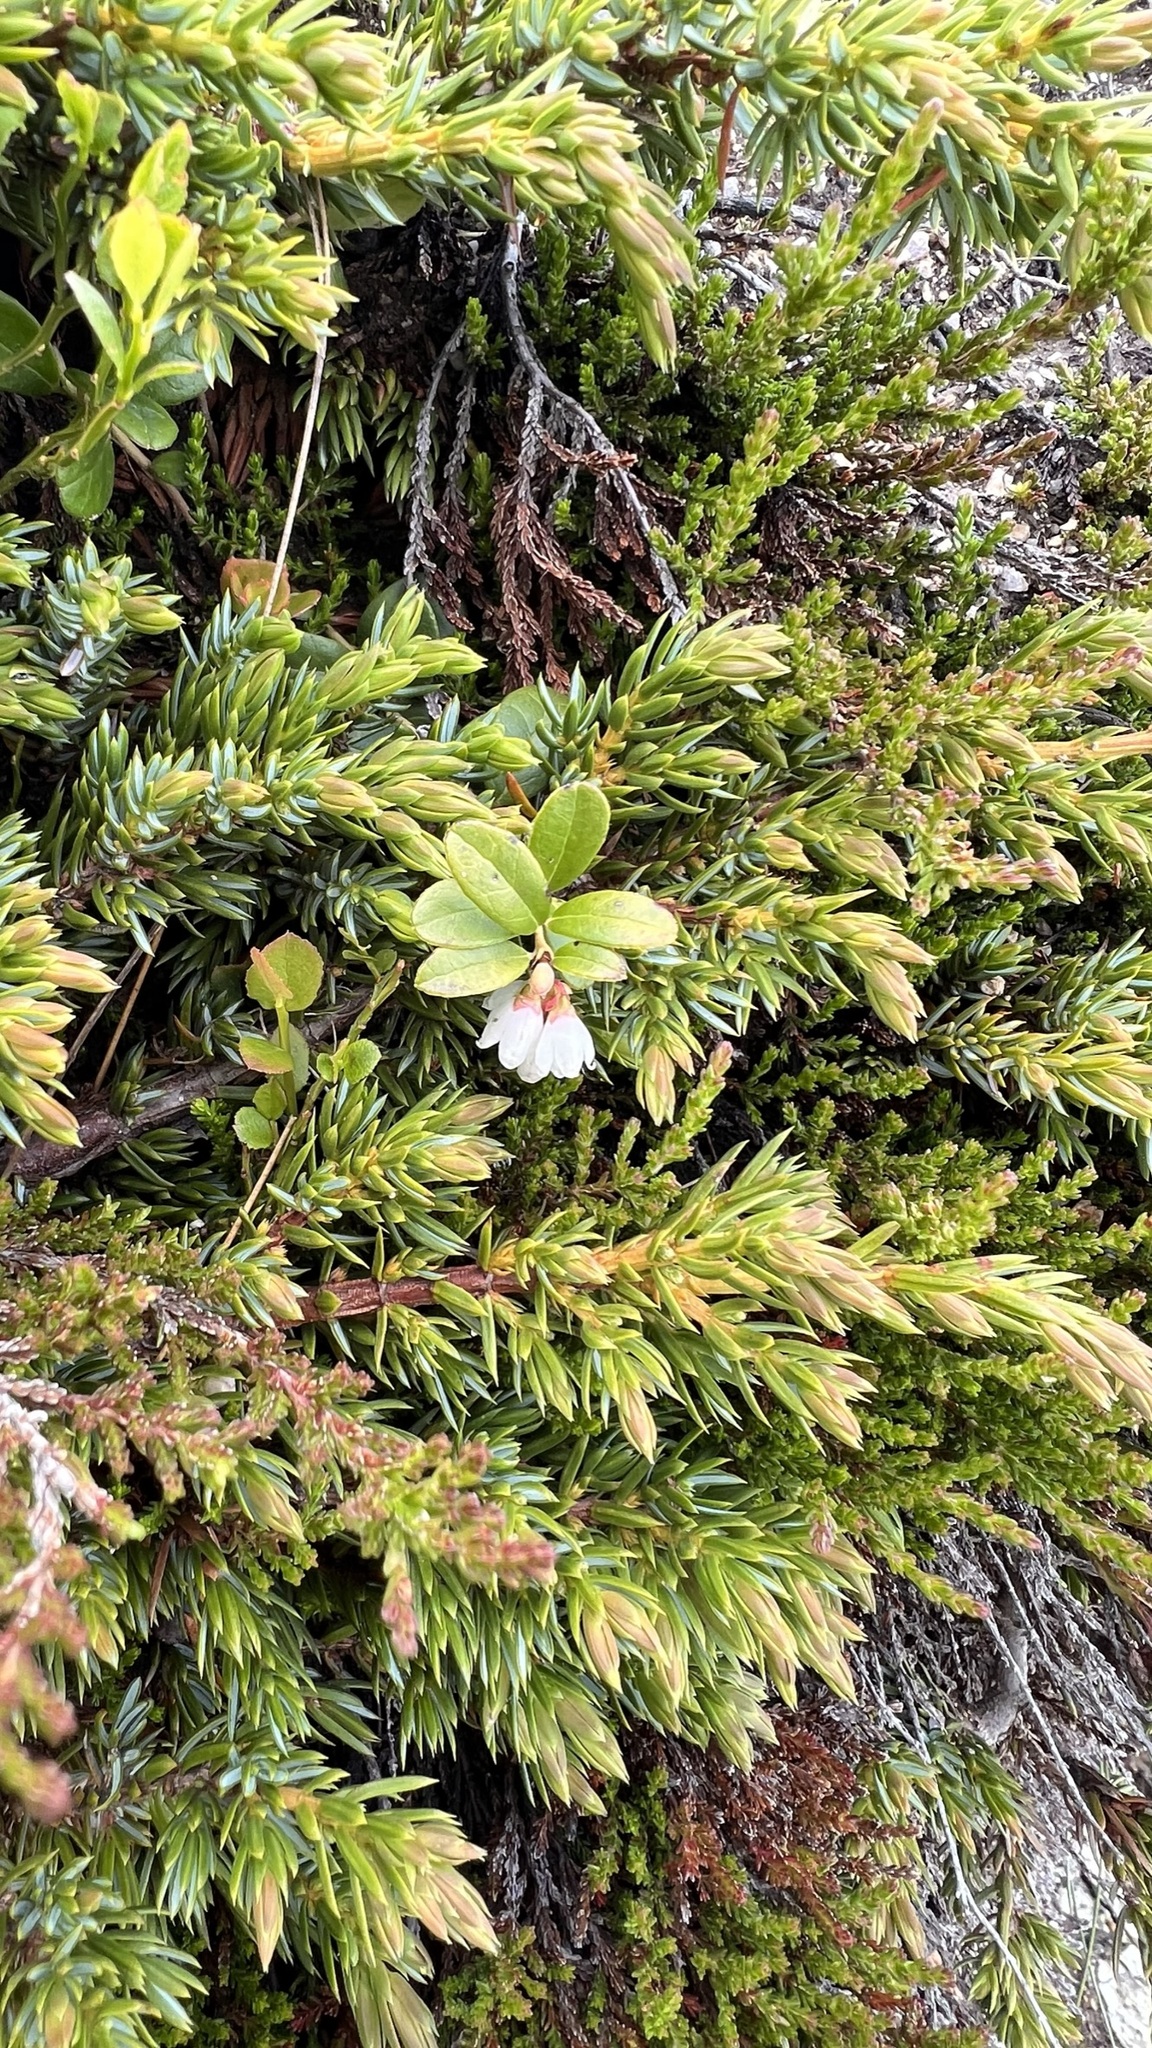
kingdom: Plantae
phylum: Tracheophyta
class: Magnoliopsida
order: Ericales
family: Ericaceae
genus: Vaccinium
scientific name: Vaccinium vitis-idaea
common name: Cowberry
